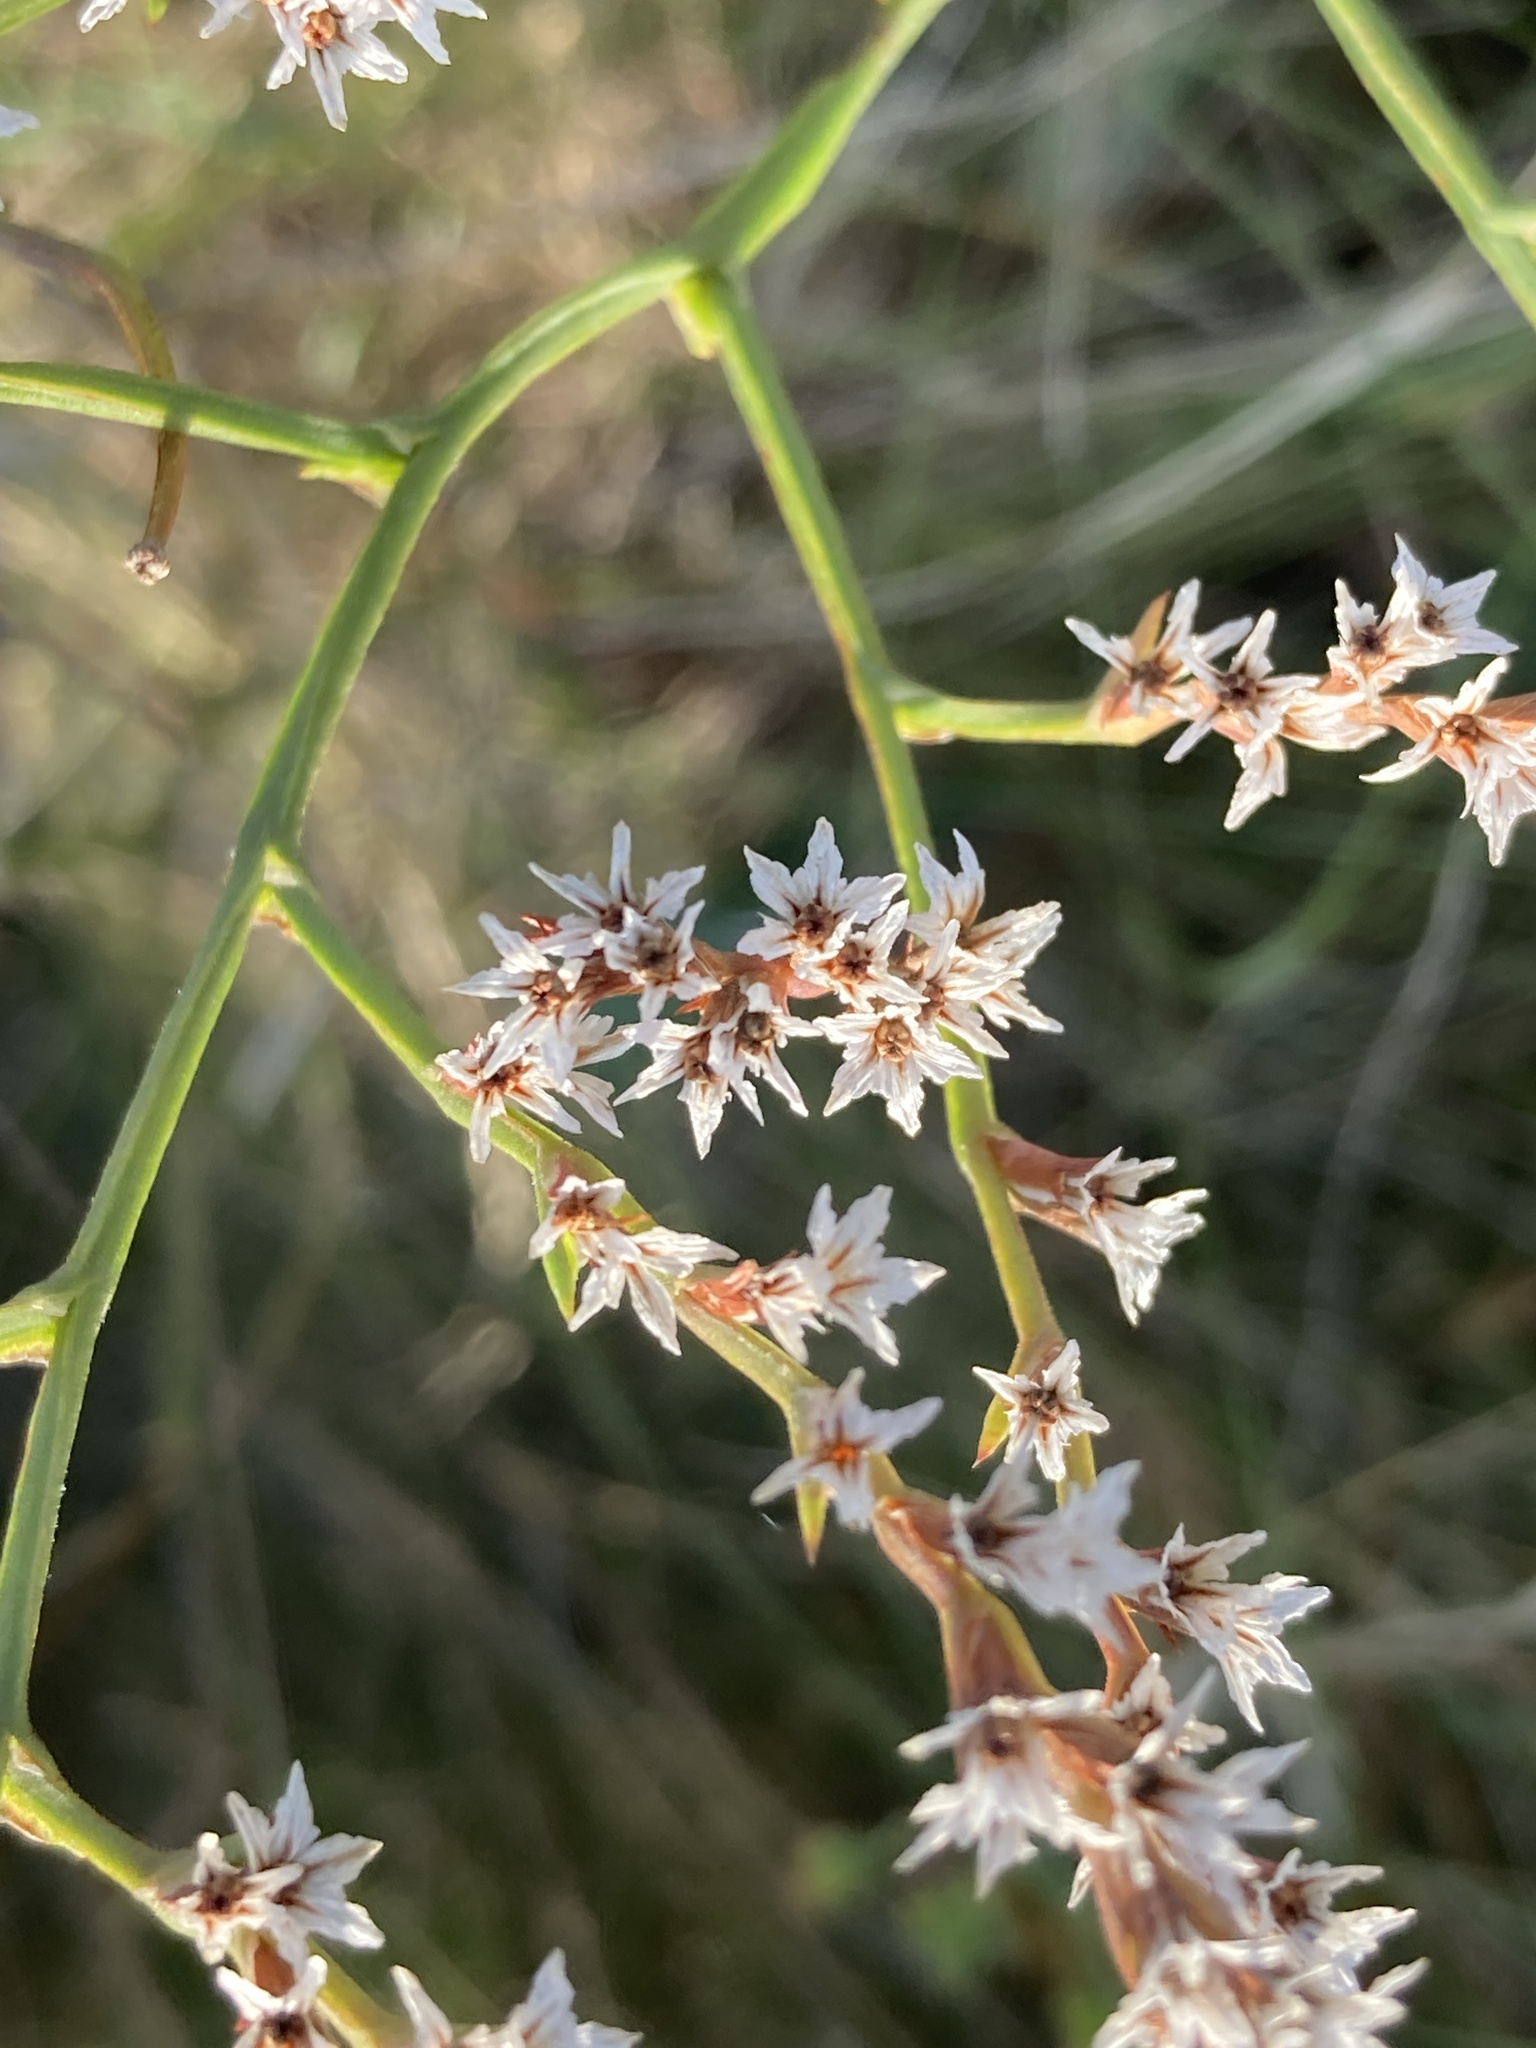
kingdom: Plantae
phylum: Tracheophyta
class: Magnoliopsida
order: Caryophyllales
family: Plumbaginaceae
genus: Goniolimon
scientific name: Goniolimon tataricum
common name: Statice
